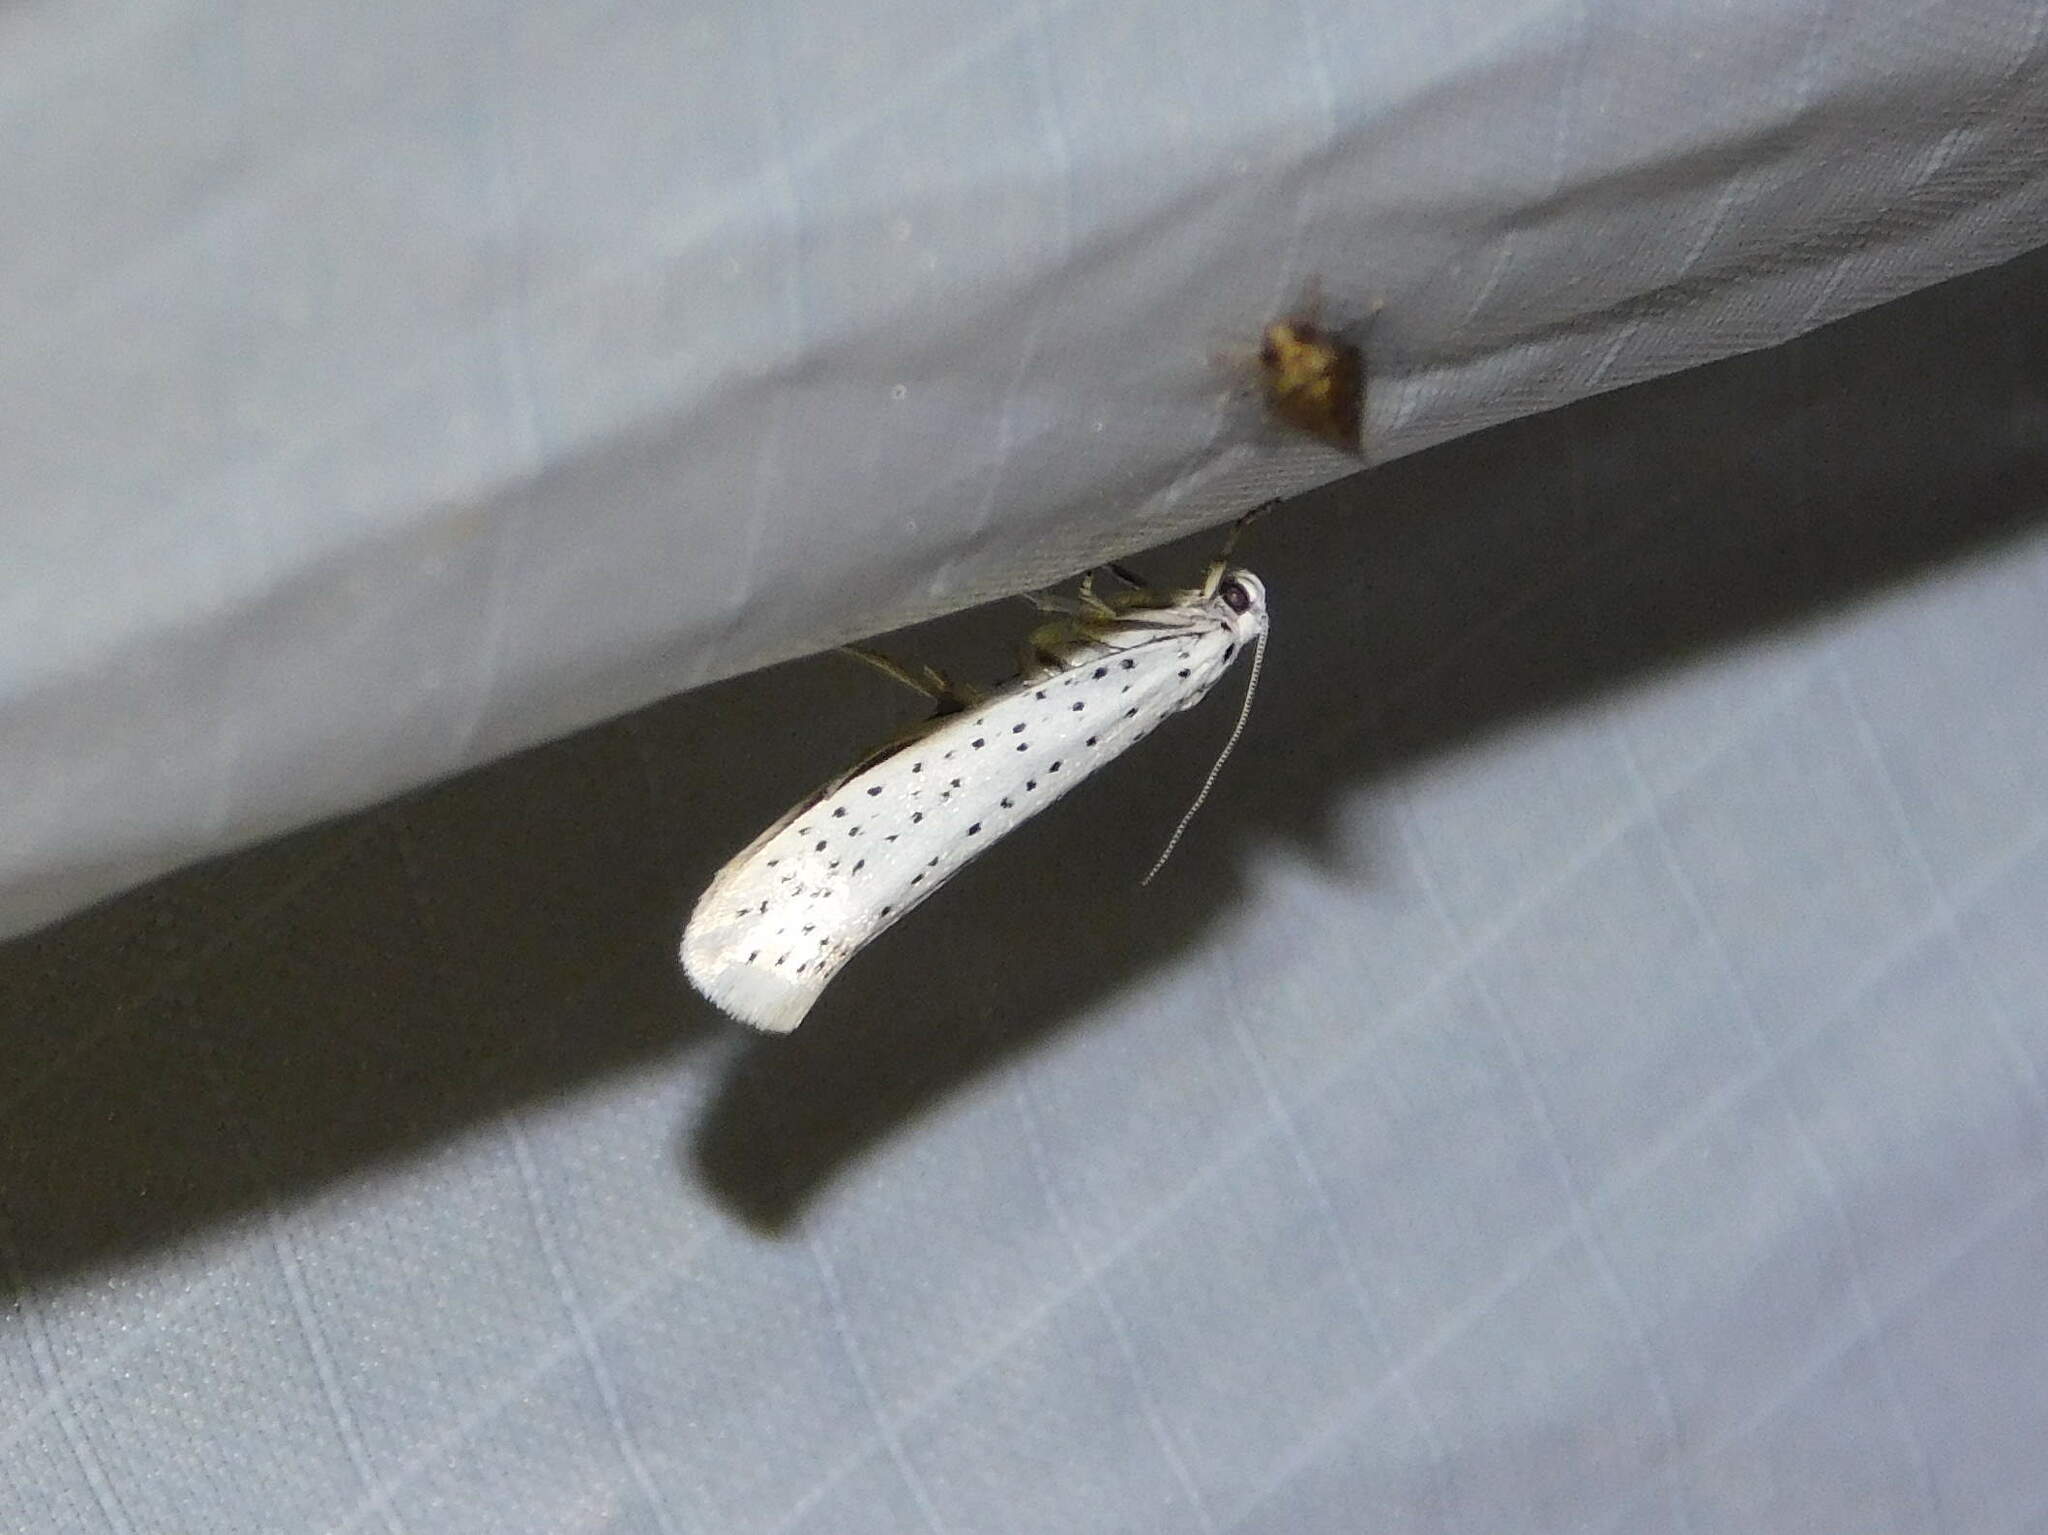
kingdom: Animalia
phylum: Arthropoda
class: Insecta
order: Lepidoptera
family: Yponomeutidae
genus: Yponomeuta
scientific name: Yponomeuta evonymella
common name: Bird-cherry ermine
